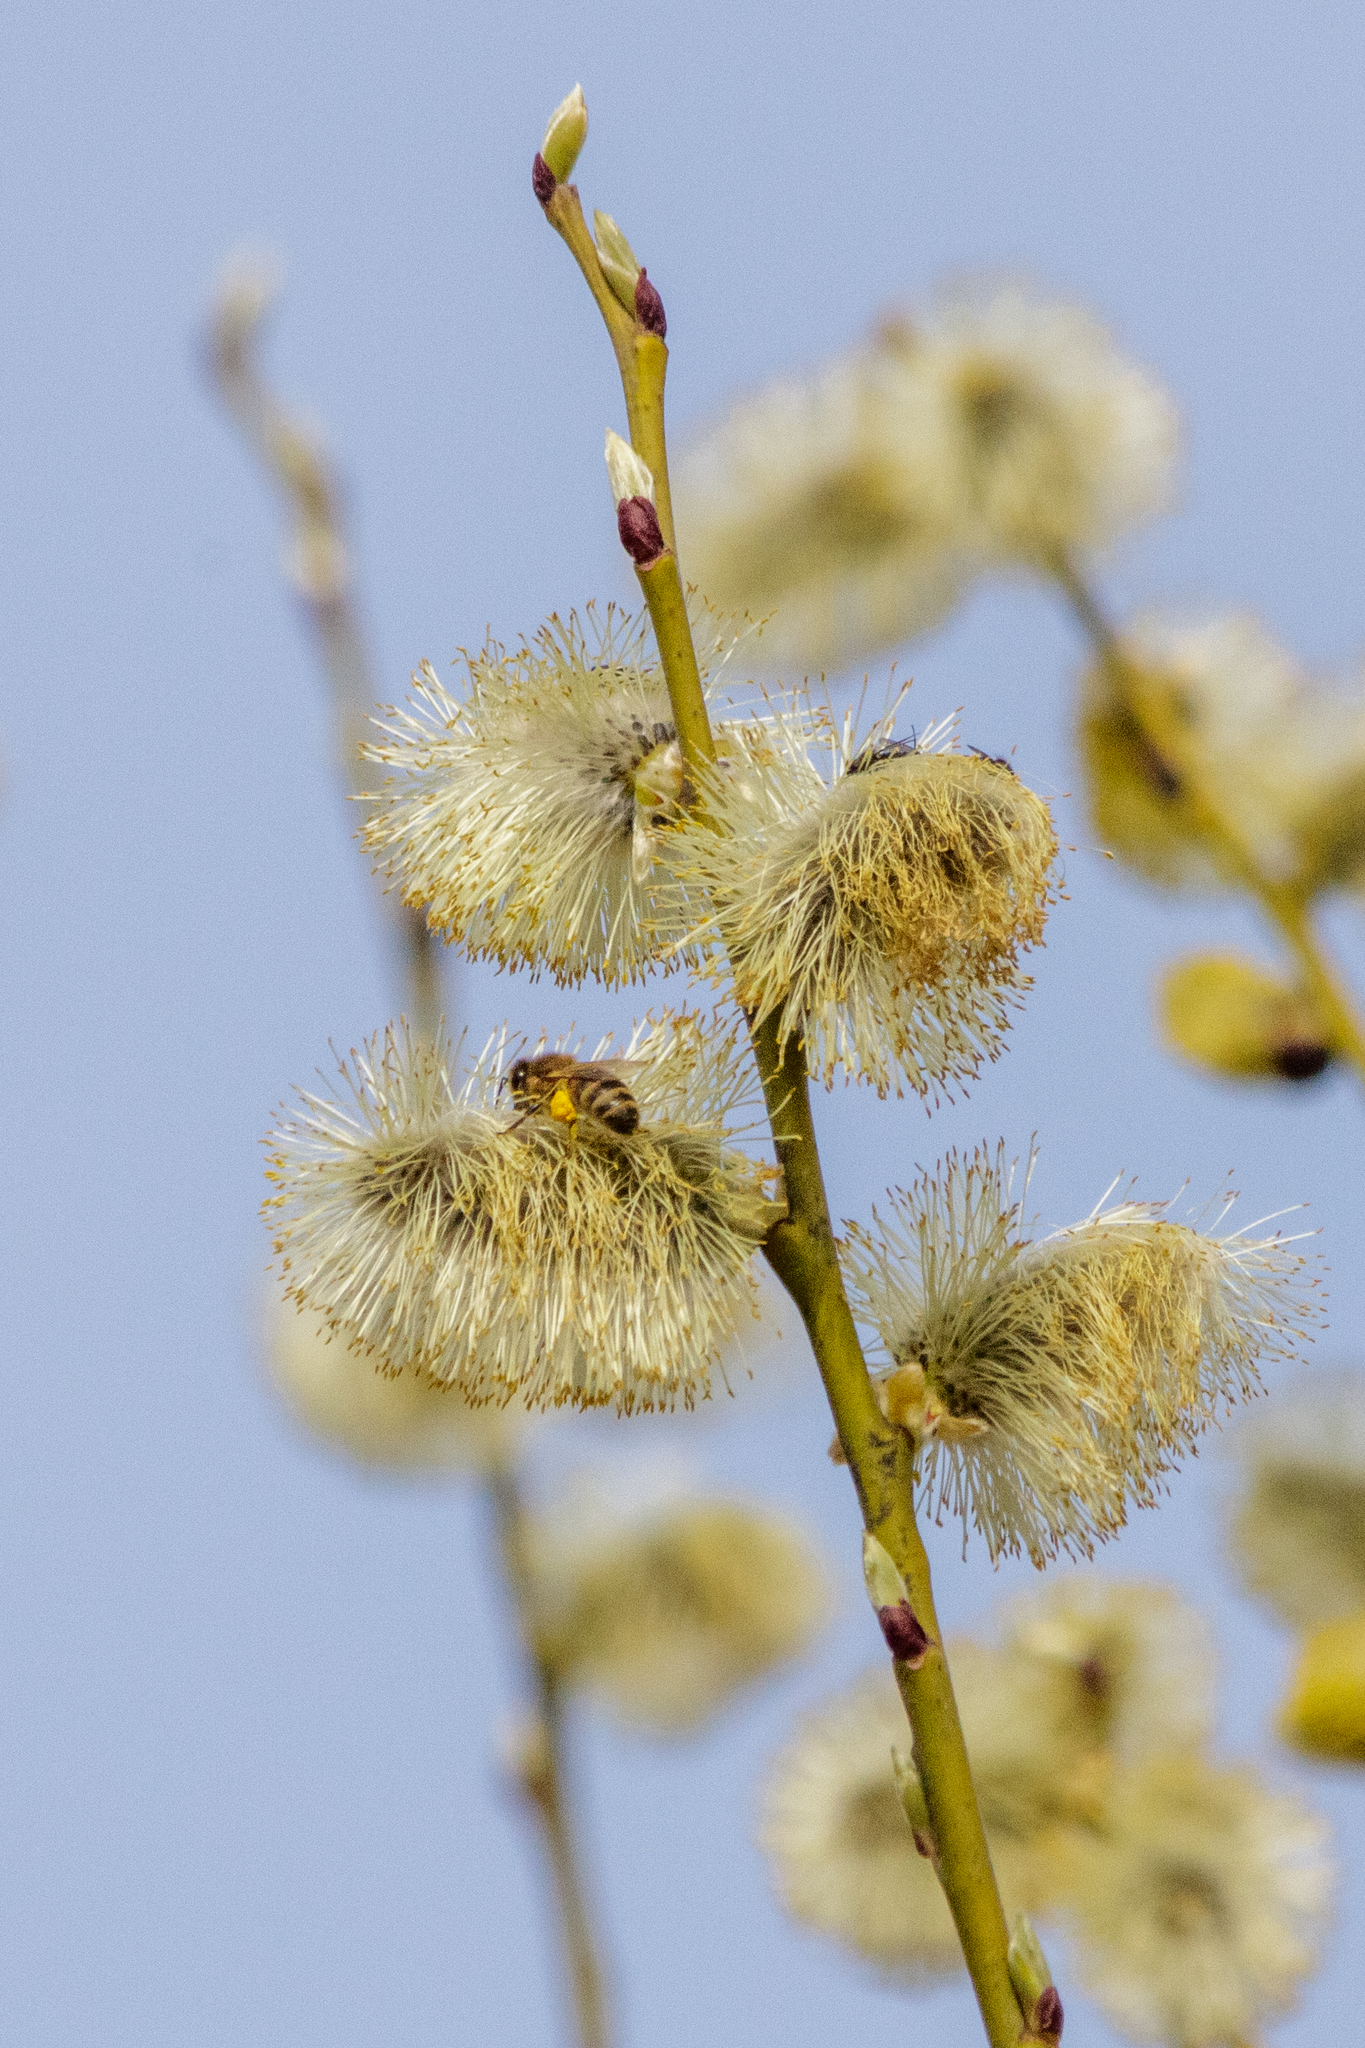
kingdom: Plantae
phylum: Tracheophyta
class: Magnoliopsida
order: Malpighiales
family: Salicaceae
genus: Salix
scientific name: Salix caprea
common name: Goat willow
